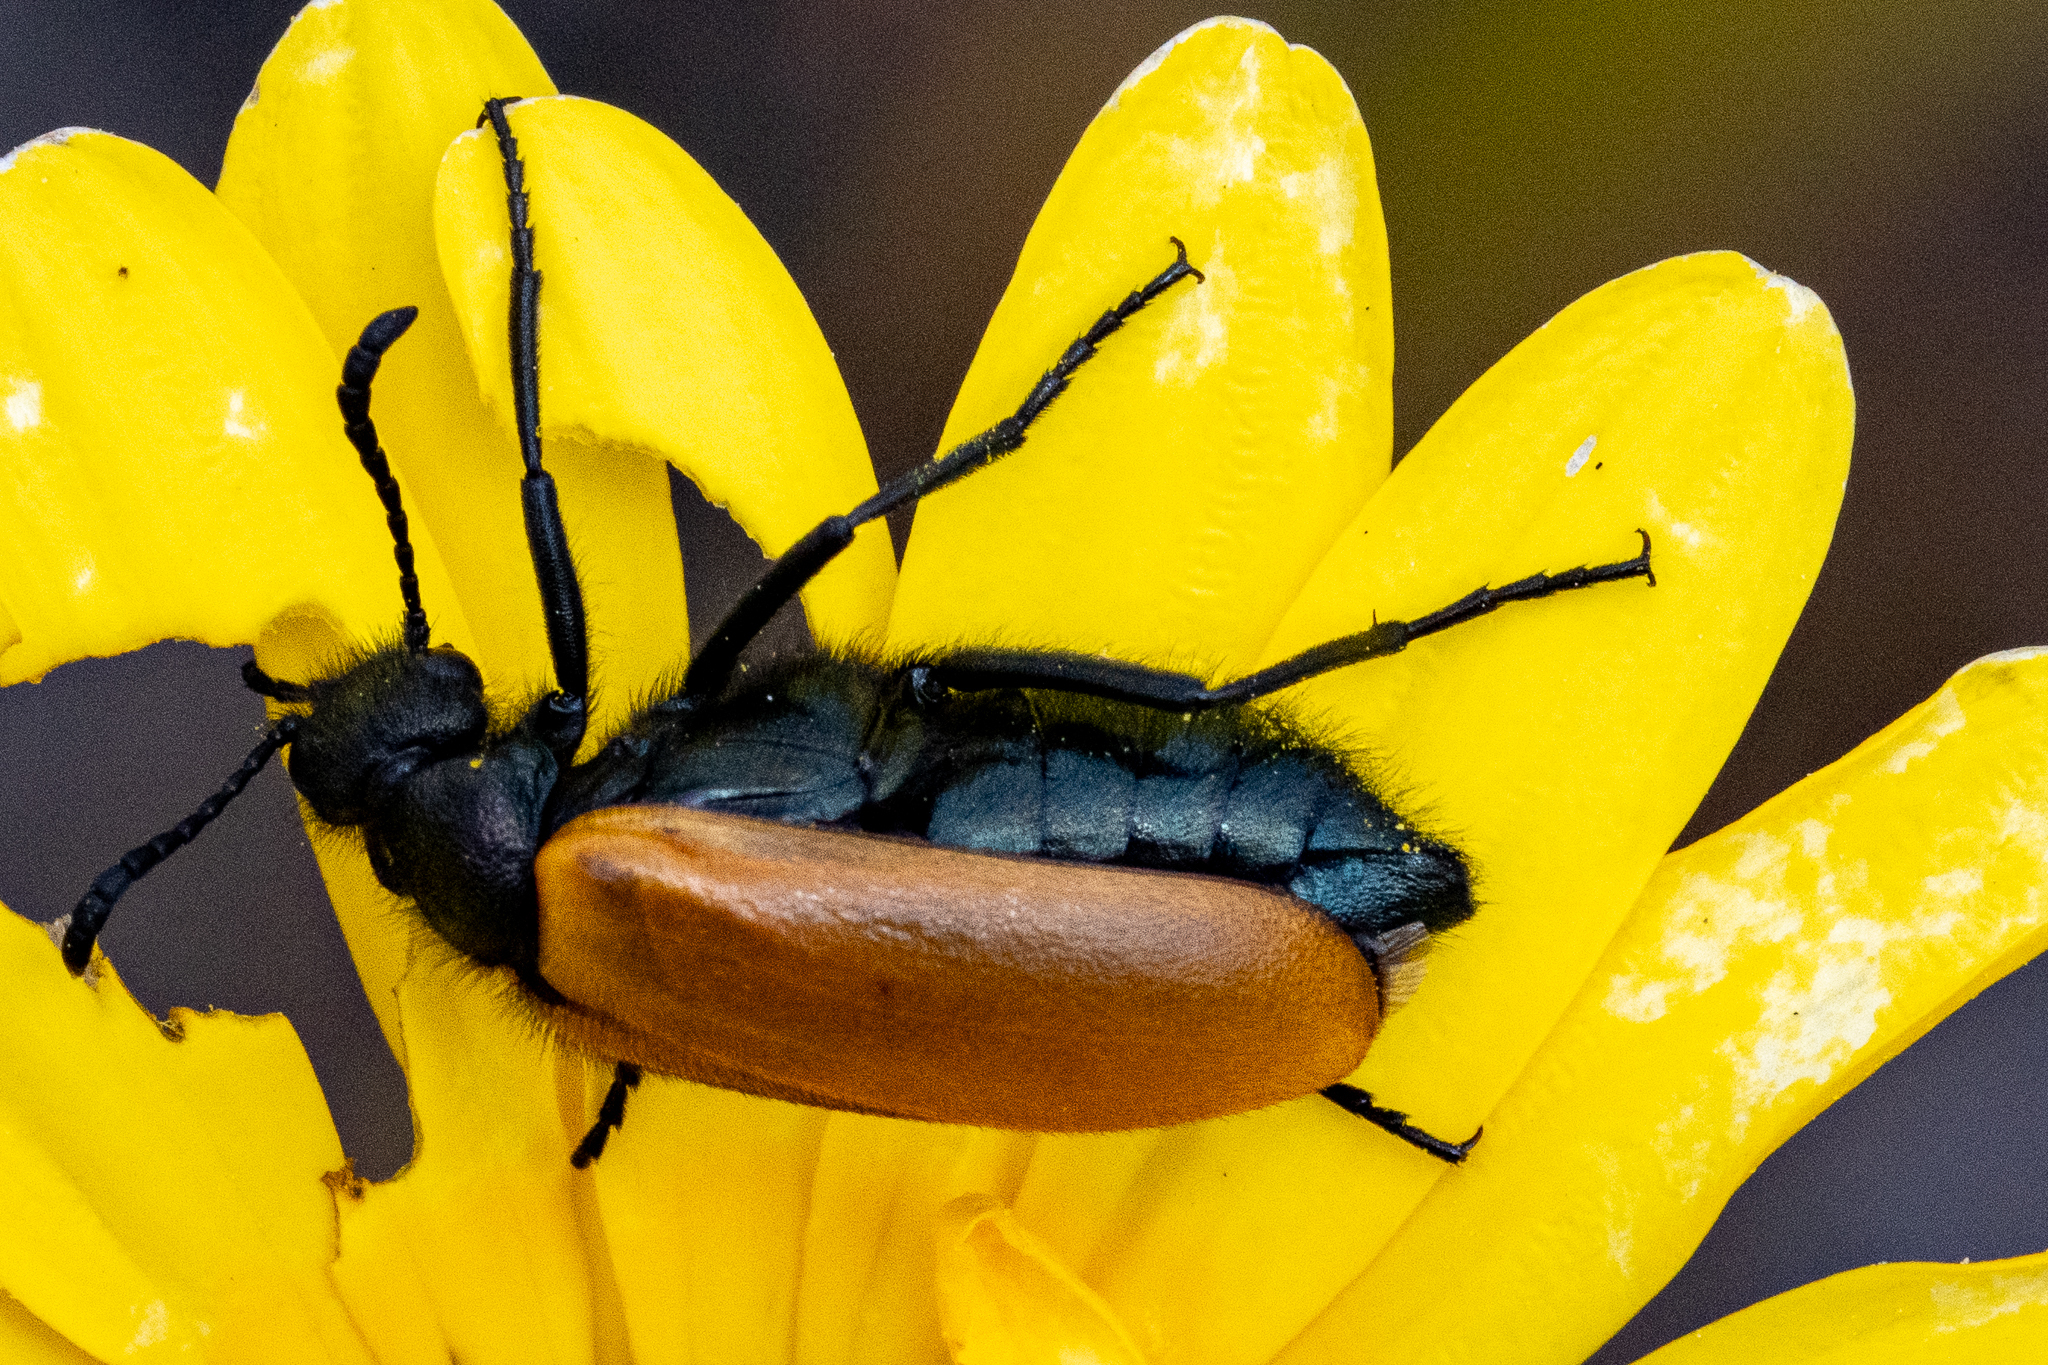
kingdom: Animalia
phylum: Arthropoda
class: Insecta
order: Coleoptera
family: Meloidae
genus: Prolytta
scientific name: Prolytta
